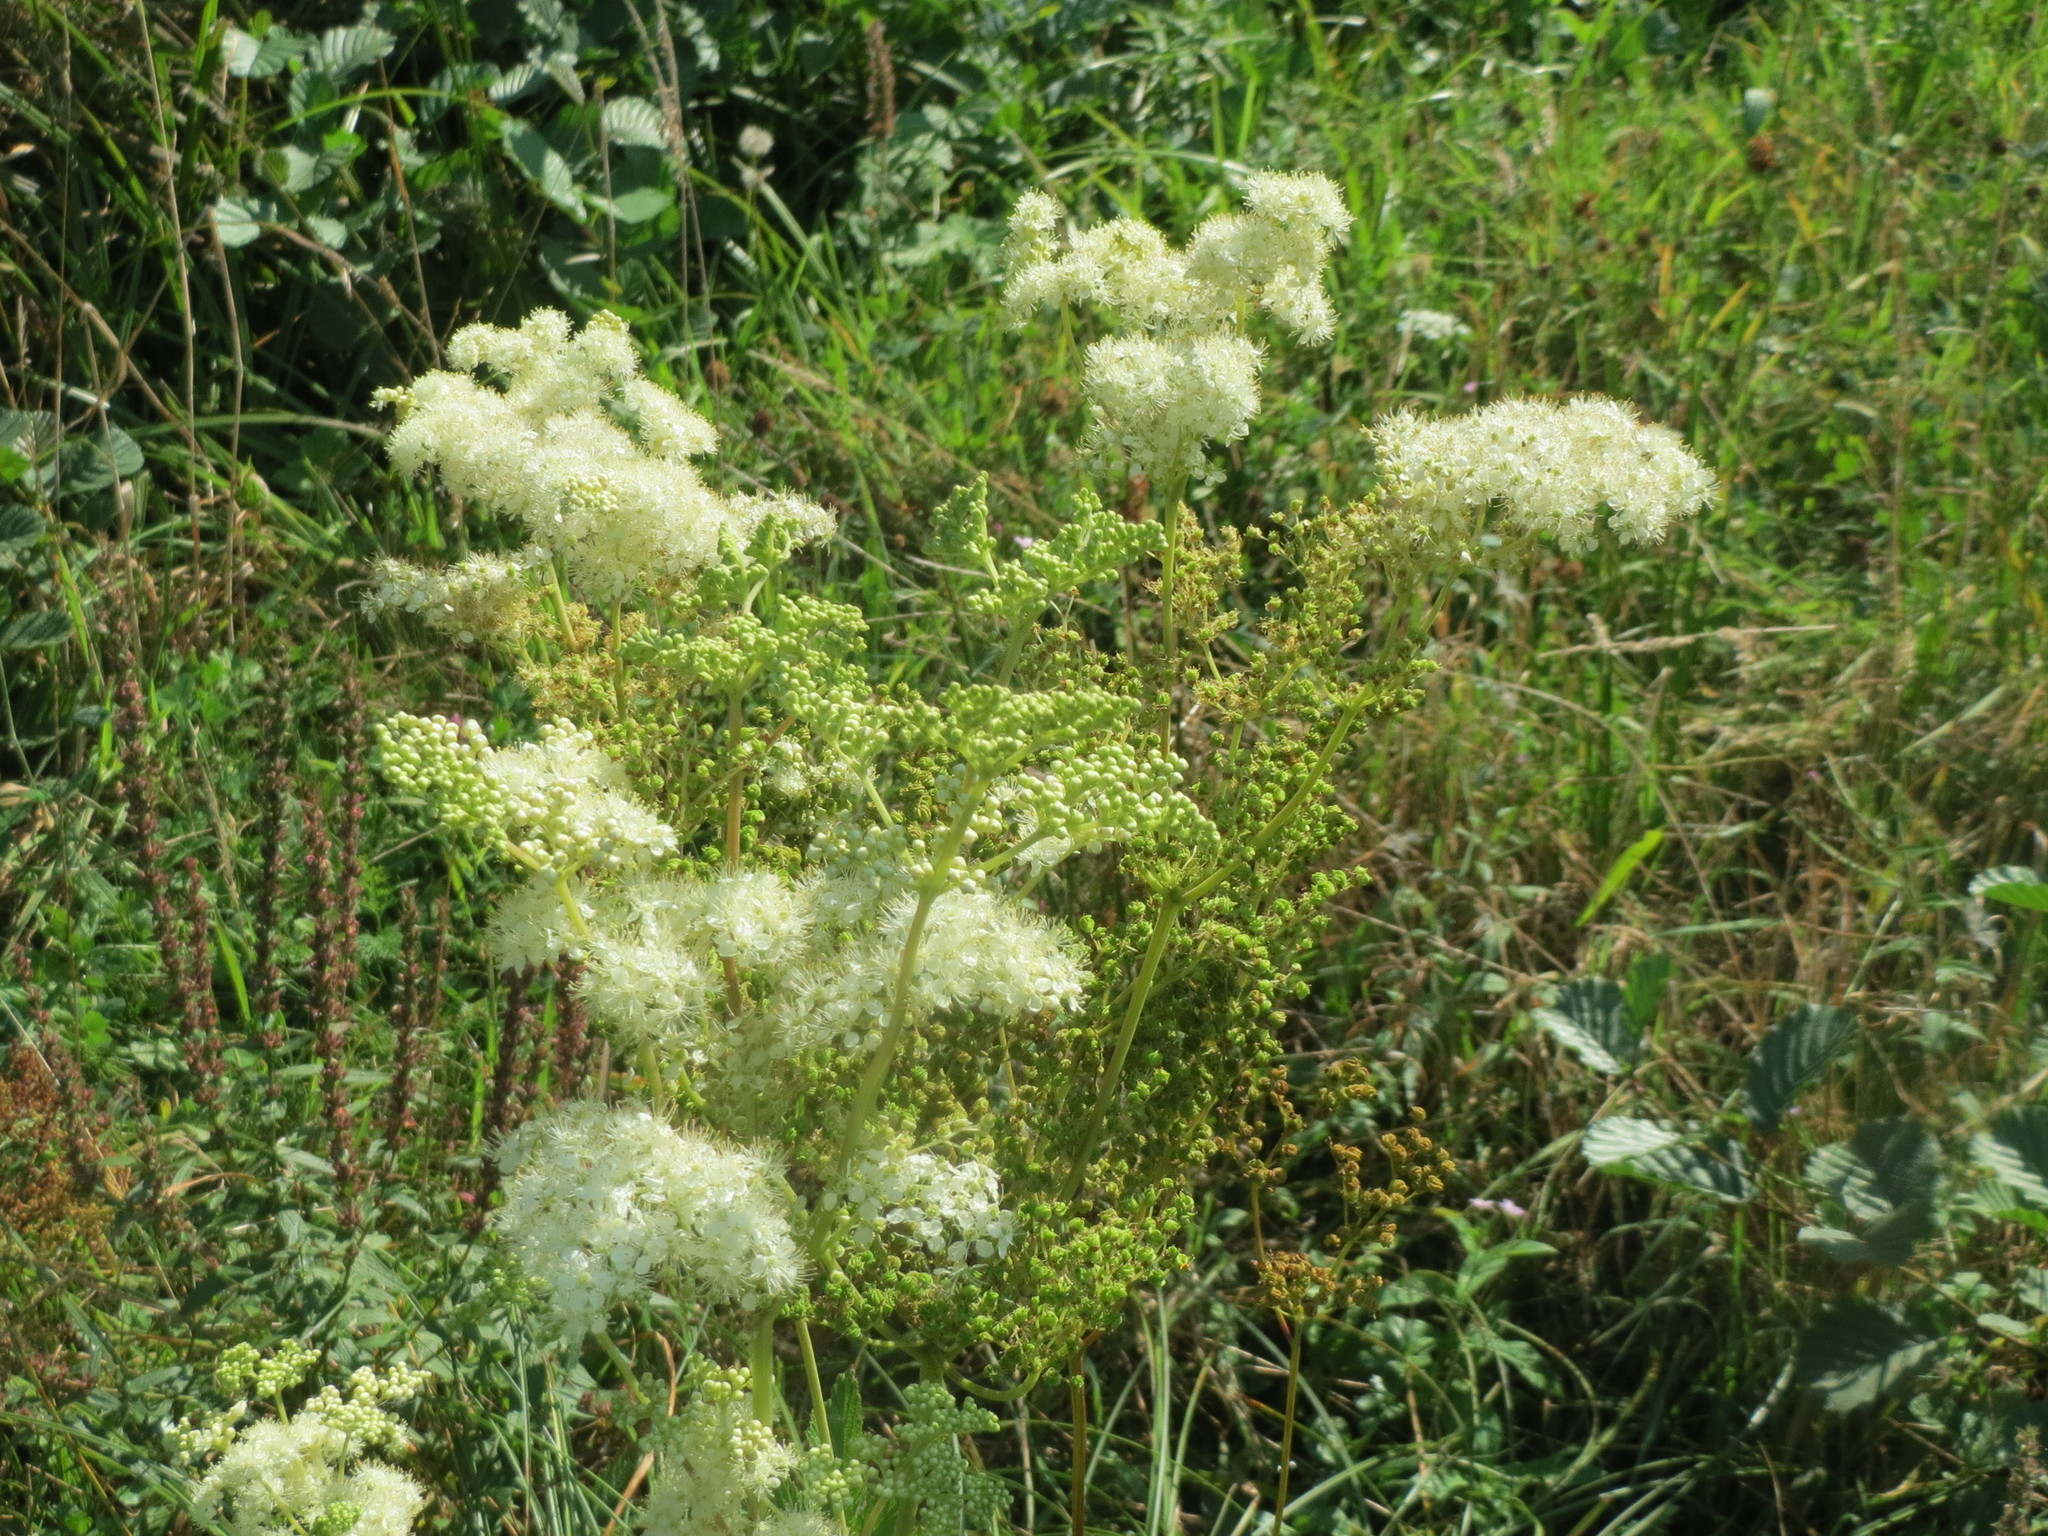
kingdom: Plantae
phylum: Tracheophyta
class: Magnoliopsida
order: Rosales
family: Rosaceae
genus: Filipendula
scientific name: Filipendula ulmaria
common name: Meadowsweet
